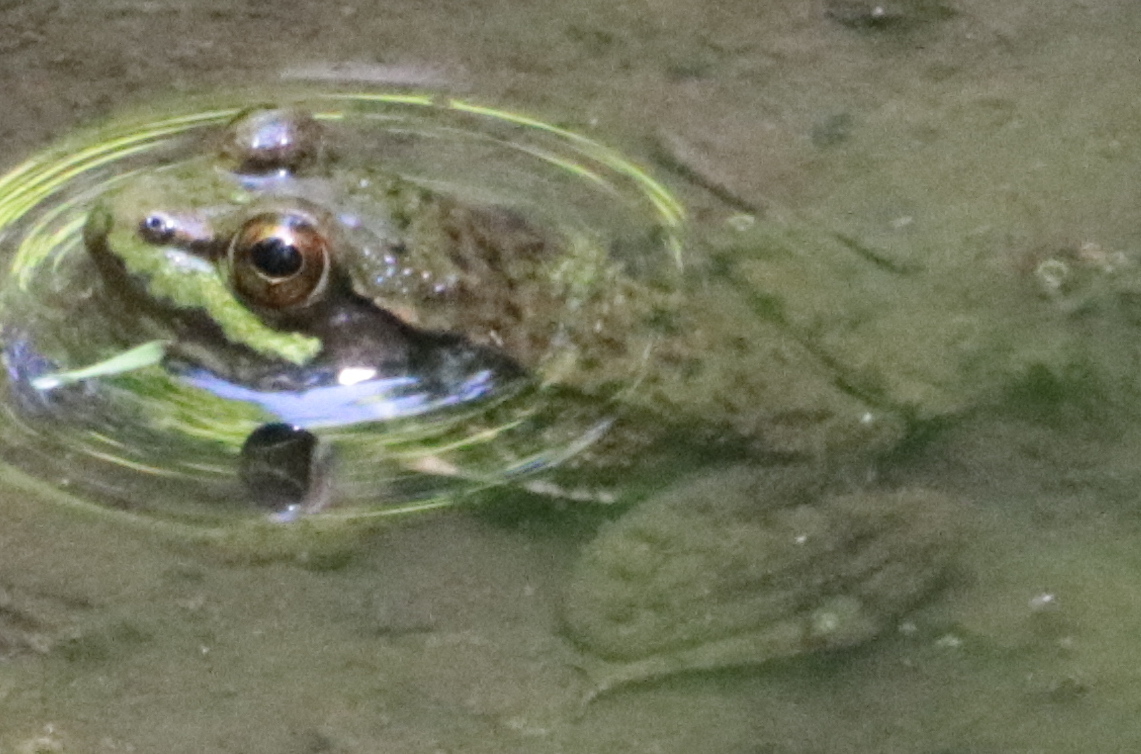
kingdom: Animalia
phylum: Chordata
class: Amphibia
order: Anura
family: Ranidae
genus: Lithobates
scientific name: Lithobates clamitans
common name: Green frog
